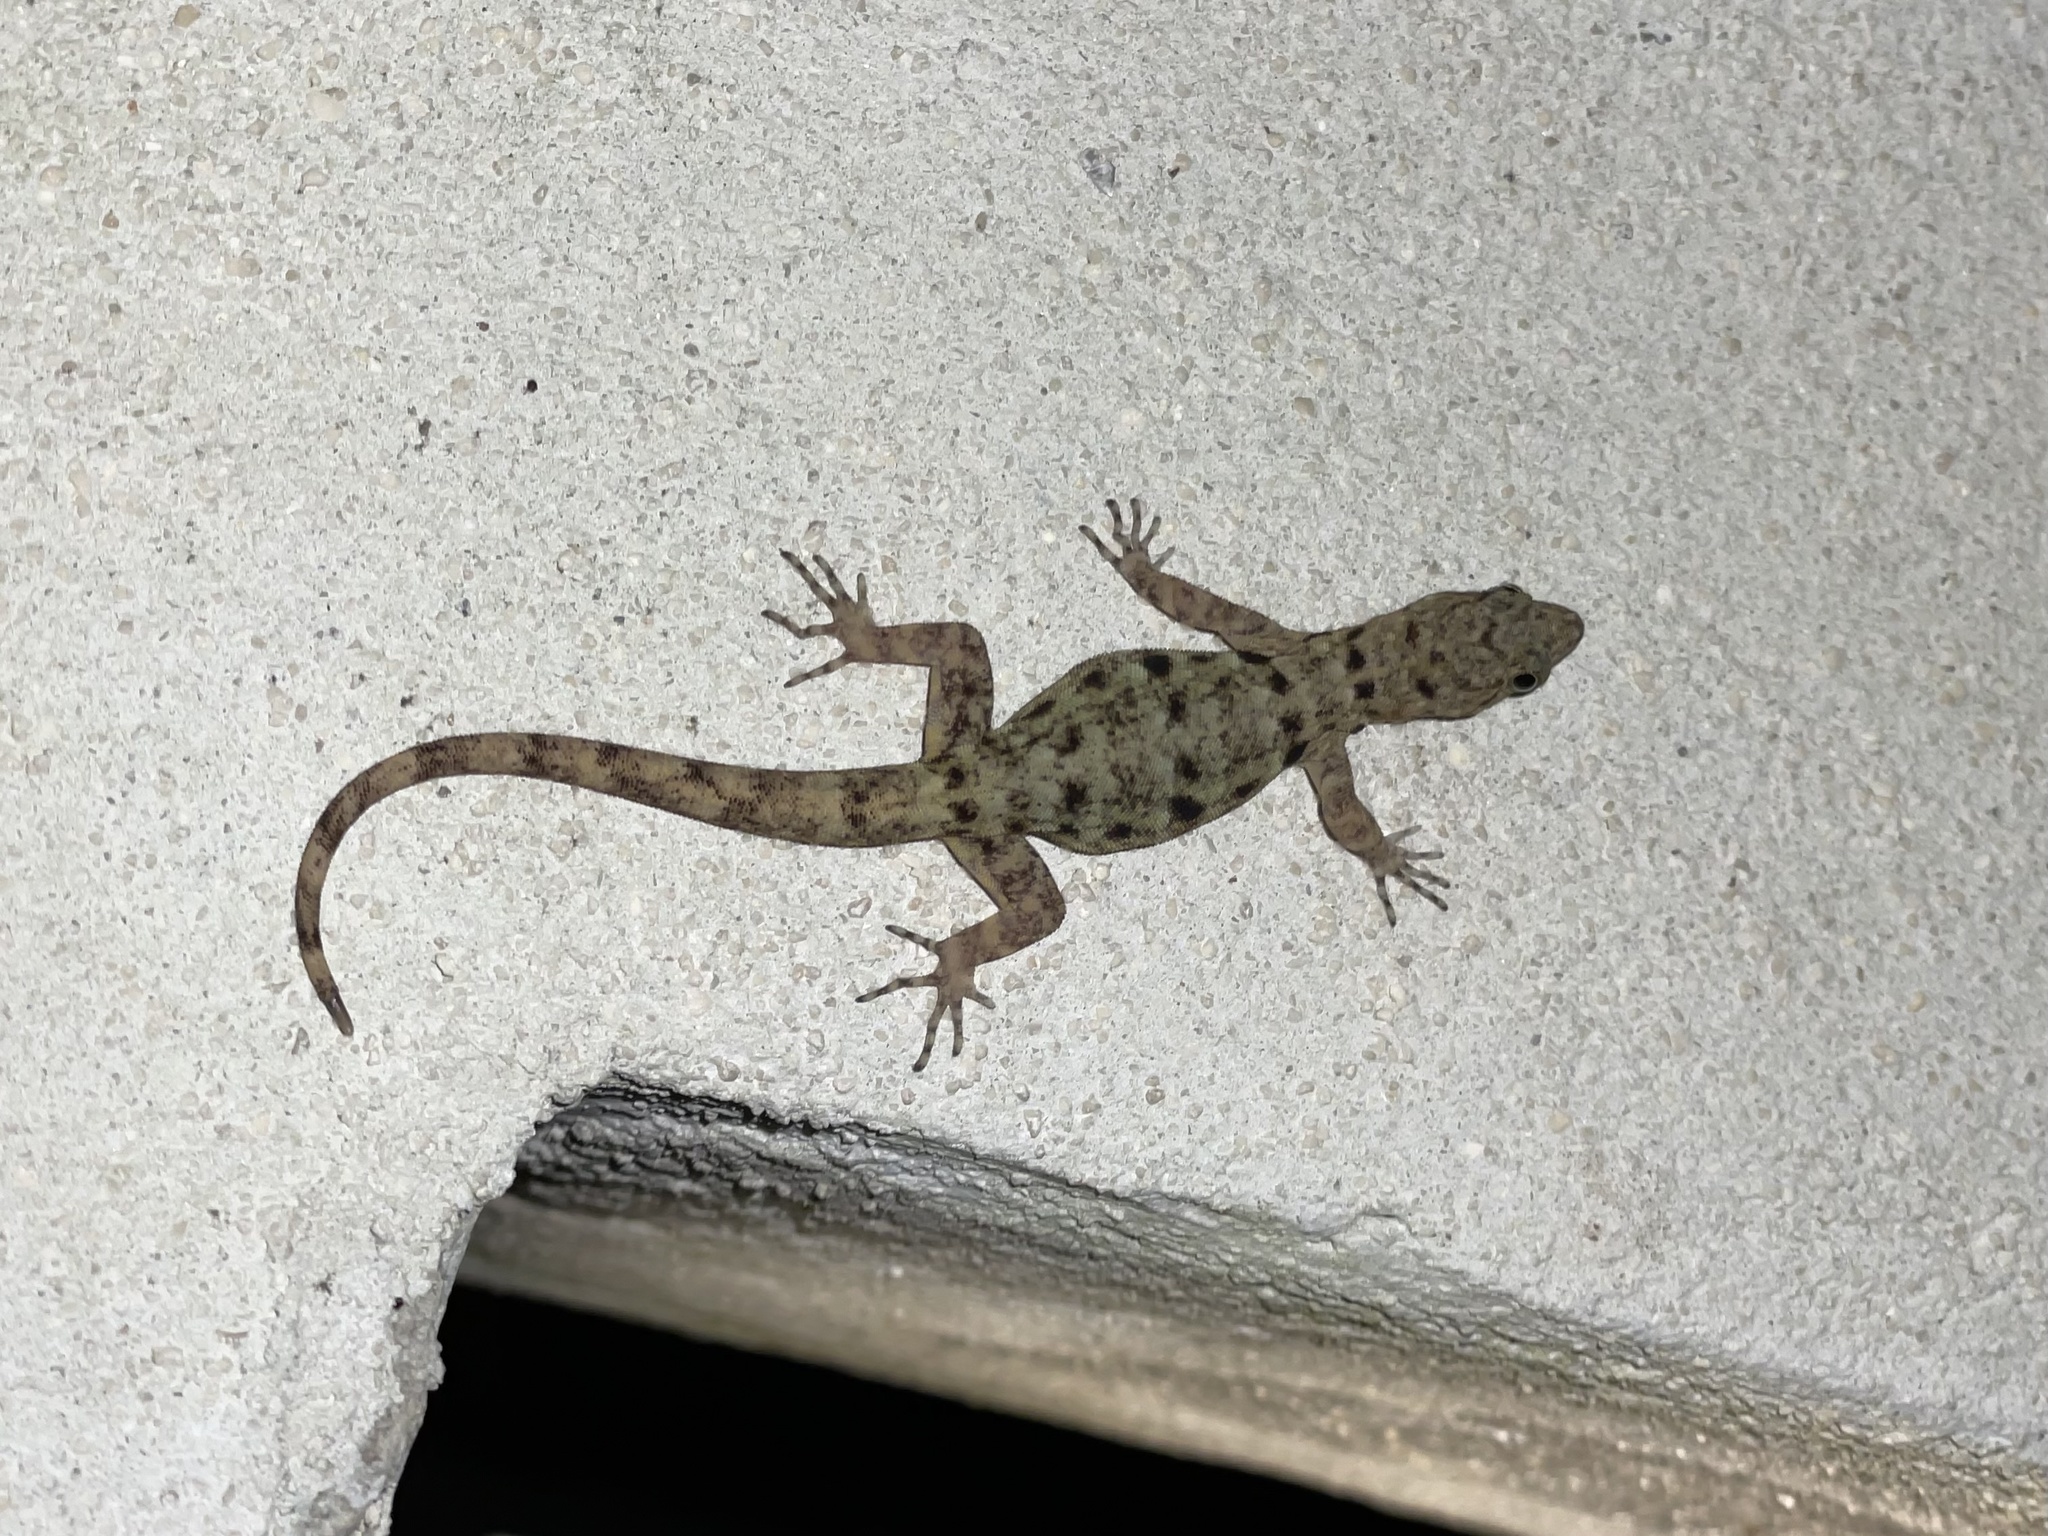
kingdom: Animalia
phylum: Chordata
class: Squamata
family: Sphaerodactylidae
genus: Gonatodes
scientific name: Gonatodes albogularis
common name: Yellow-headed gecko
